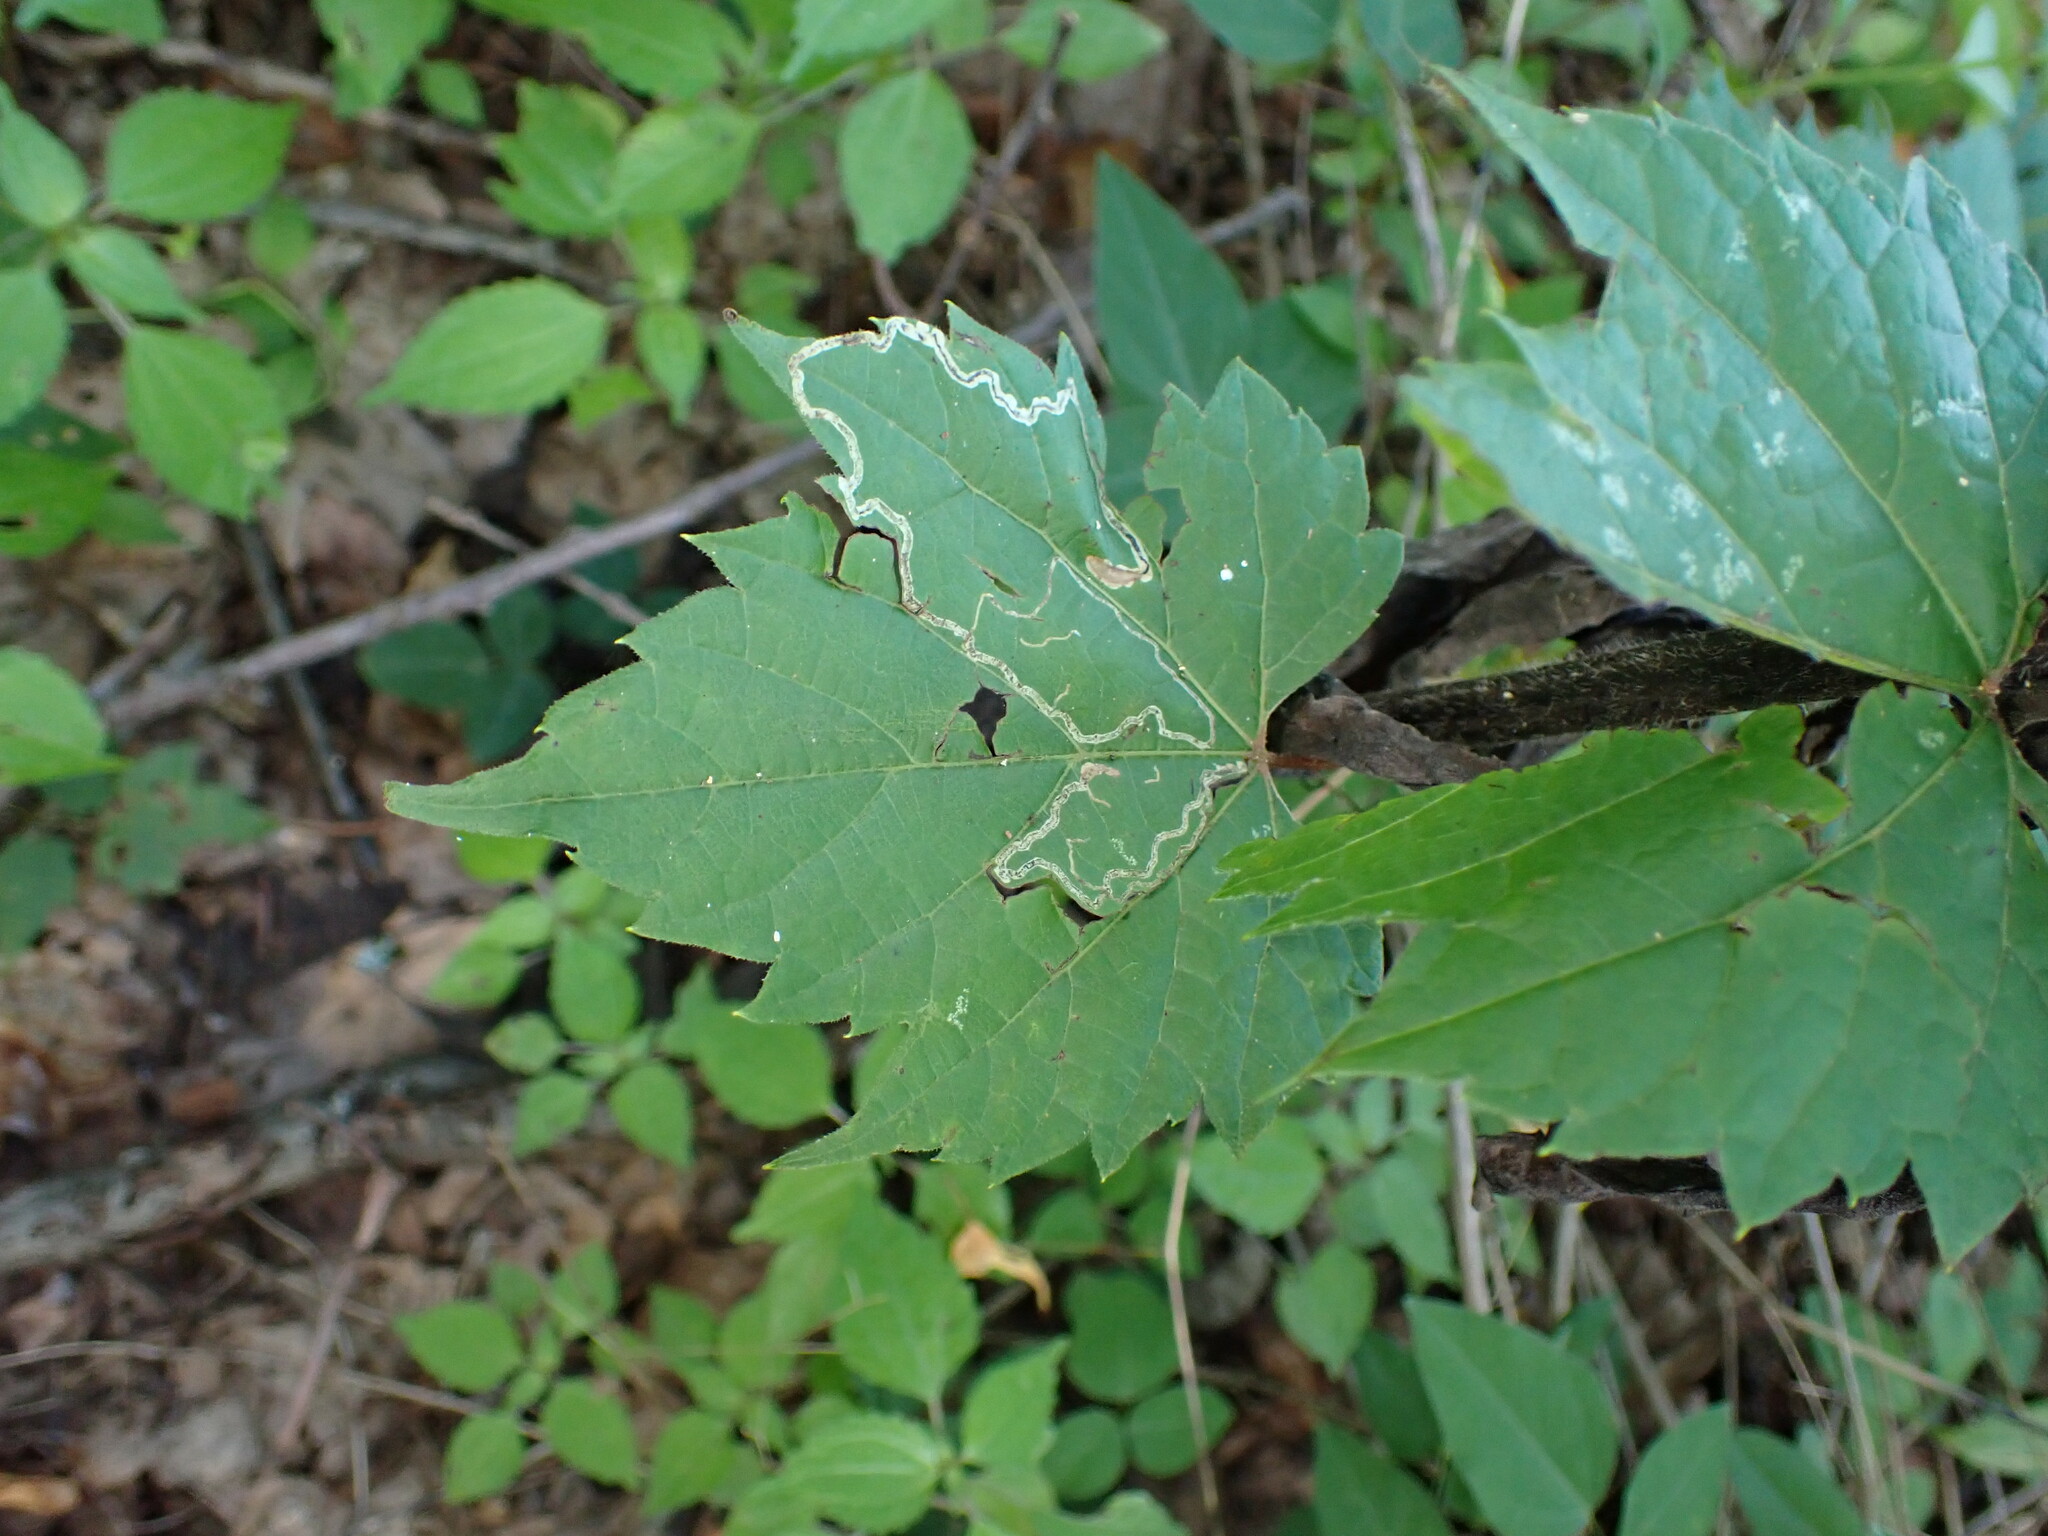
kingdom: Animalia
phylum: Arthropoda
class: Insecta
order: Lepidoptera
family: Gracillariidae
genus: Phyllocnistis
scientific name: Phyllocnistis vitifoliella
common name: Grape leaf-miner moth
